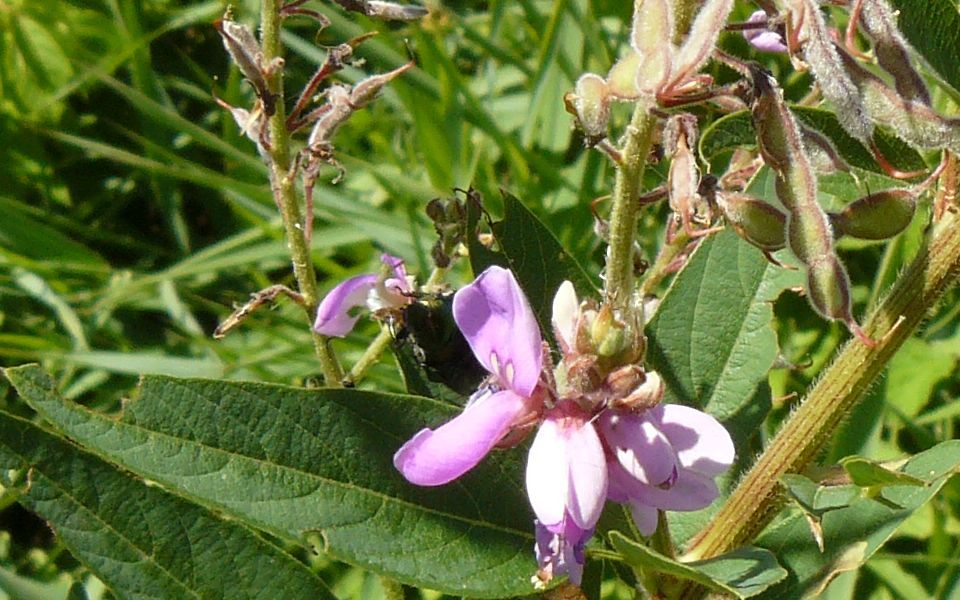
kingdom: Plantae
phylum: Tracheophyta
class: Magnoliopsida
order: Fabales
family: Fabaceae
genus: Desmodium
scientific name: Desmodium canadense
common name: Canada tick-trefoil
